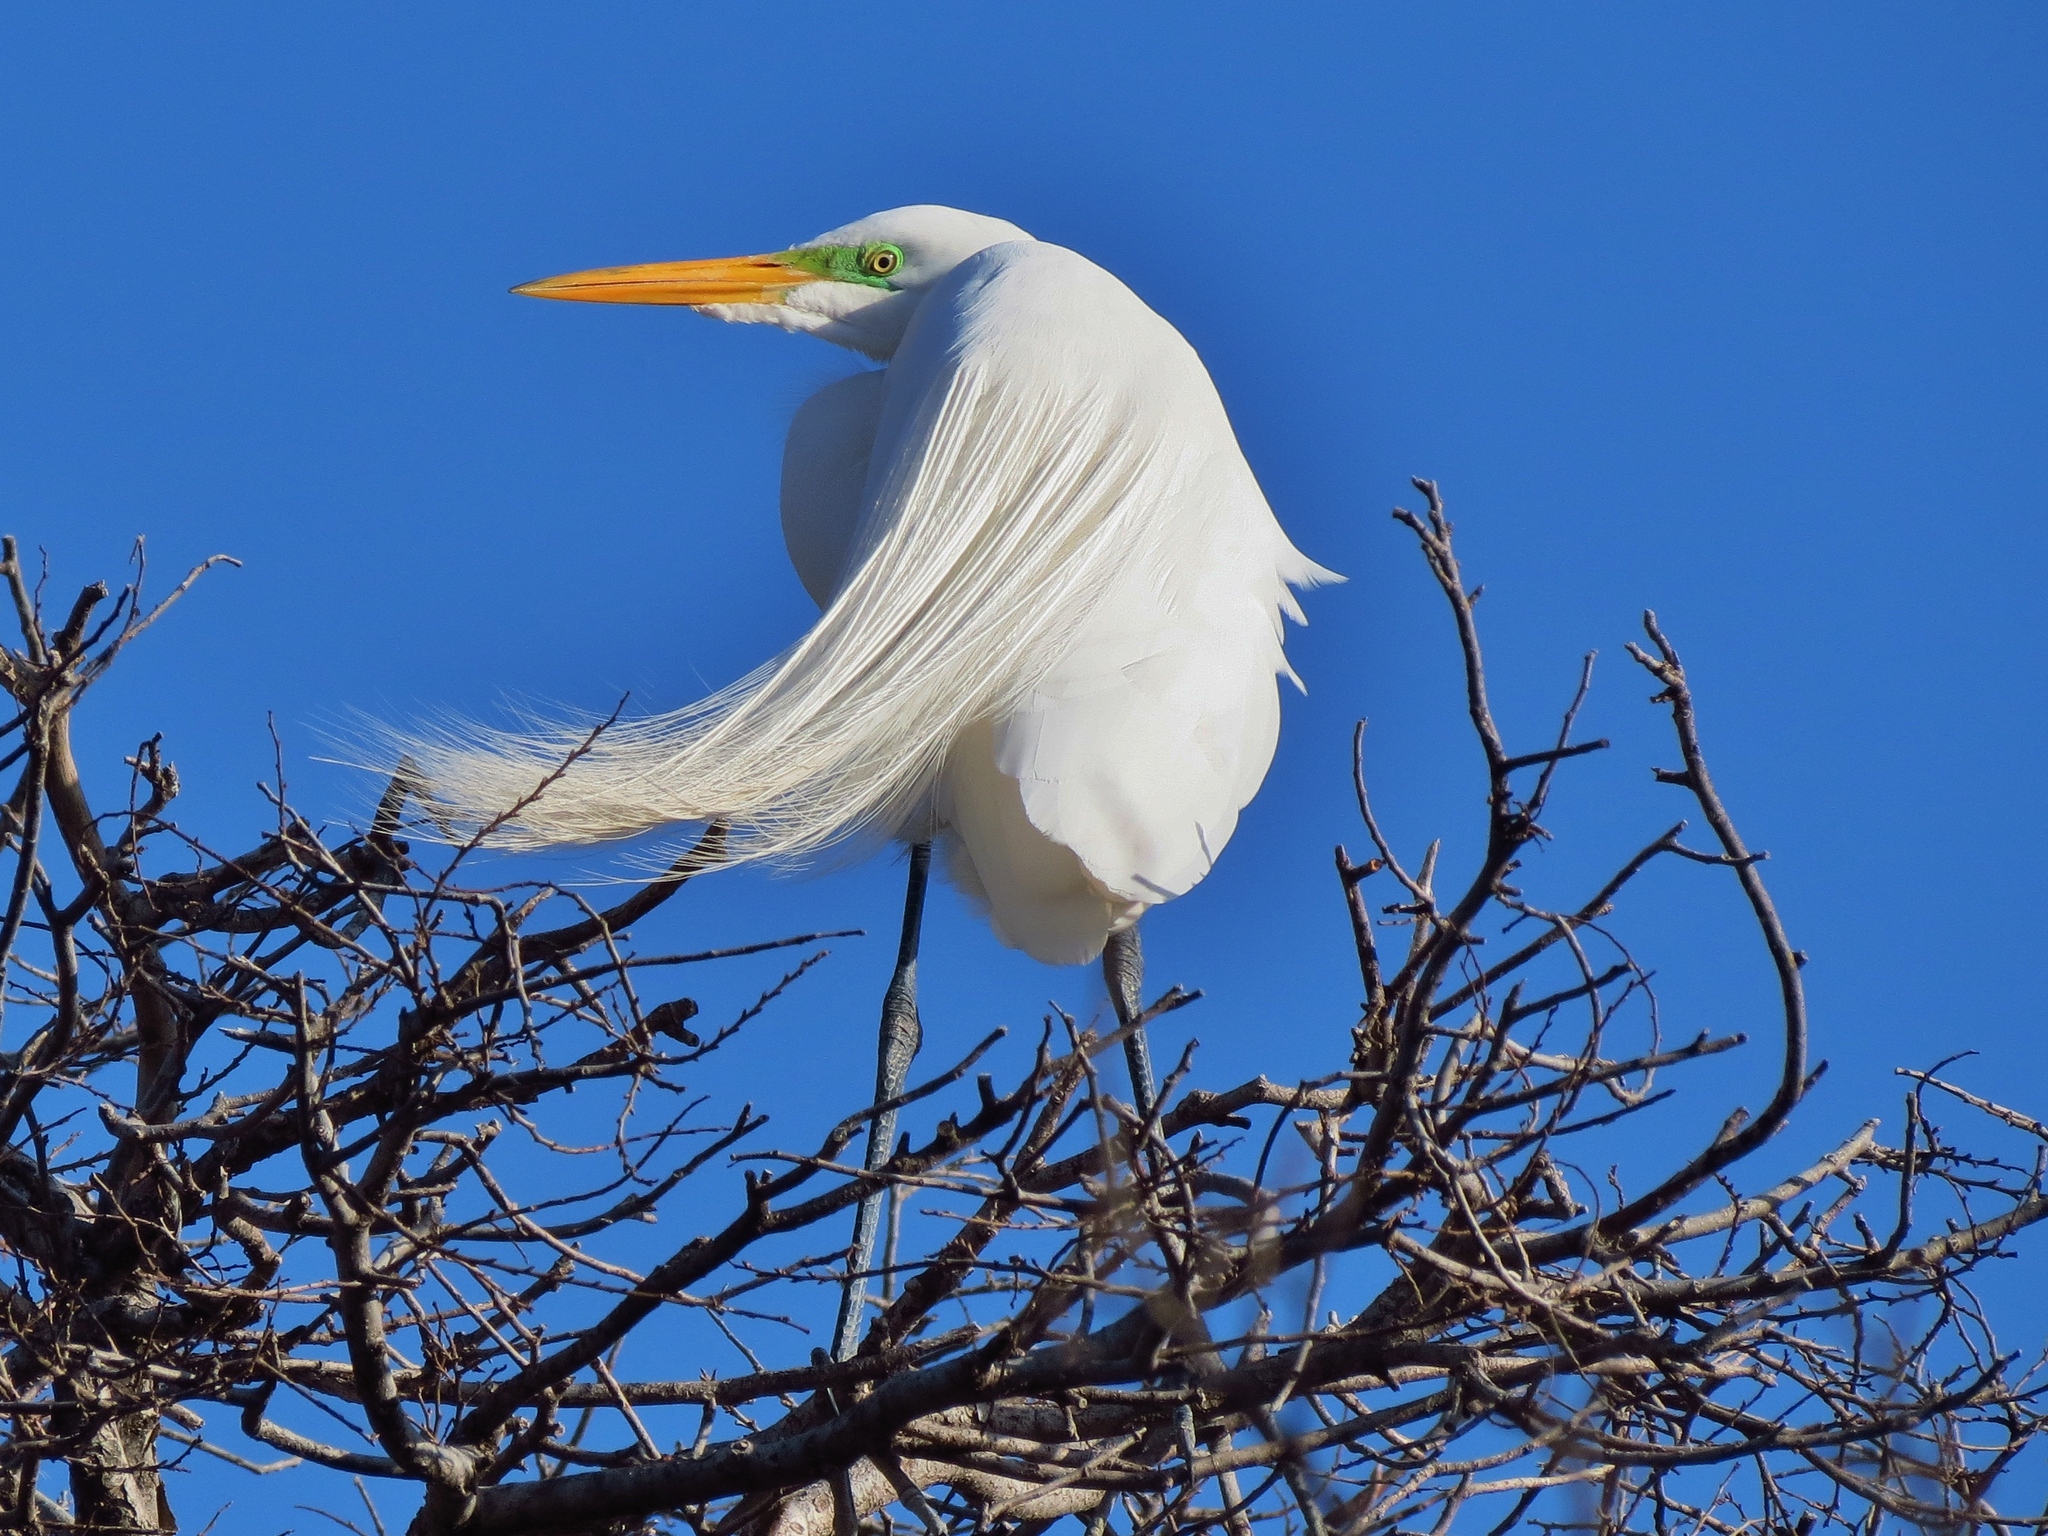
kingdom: Animalia
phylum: Chordata
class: Aves
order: Pelecaniformes
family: Ardeidae
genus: Ardea
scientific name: Ardea alba
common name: Great egret
